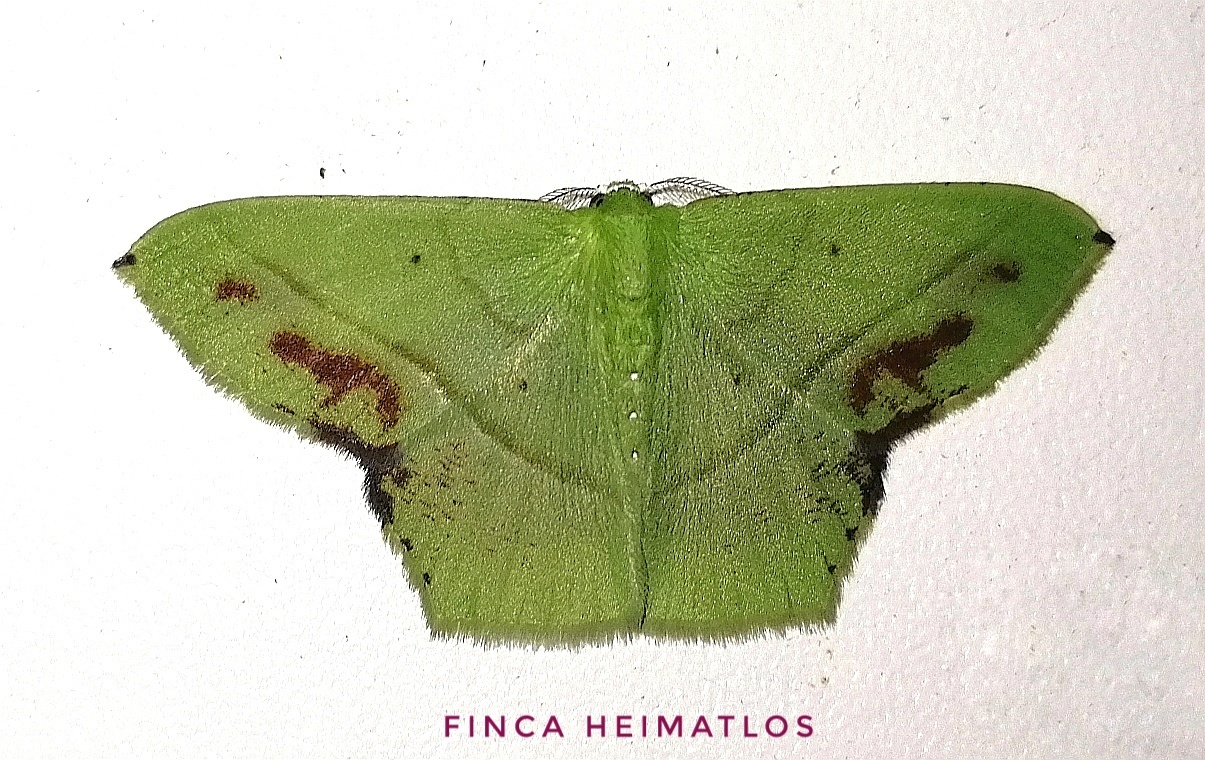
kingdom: Animalia
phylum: Arthropoda
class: Insecta
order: Lepidoptera
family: Geometridae
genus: Phrudocentra
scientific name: Phrudocentra neis
